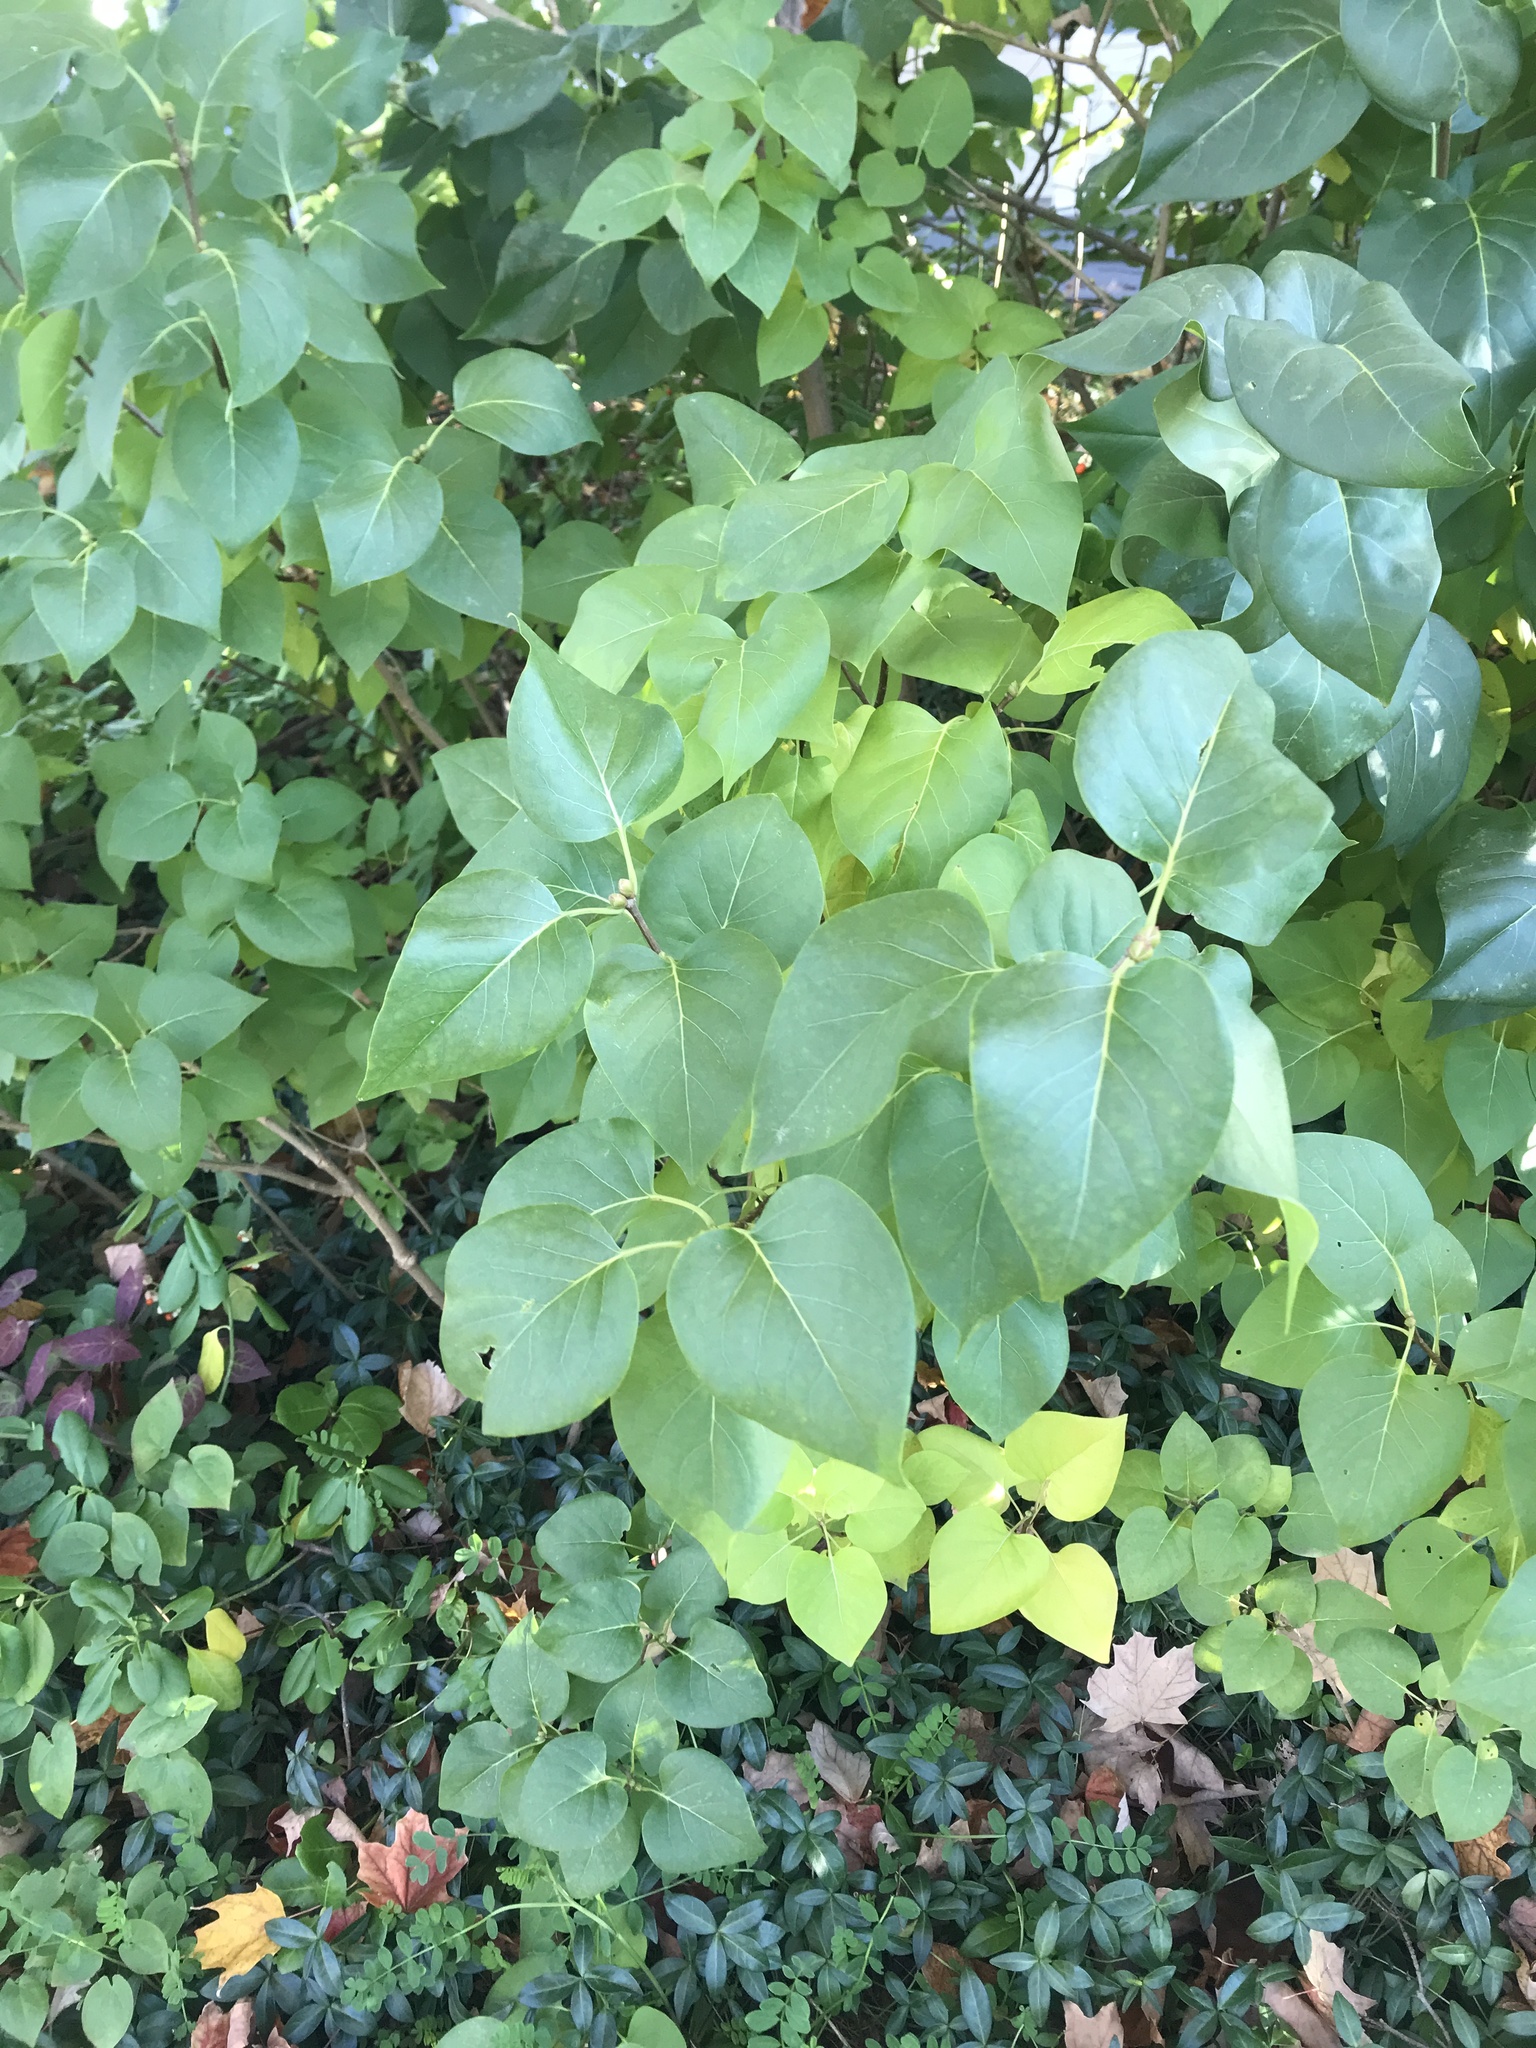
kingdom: Plantae
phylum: Tracheophyta
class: Magnoliopsida
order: Lamiales
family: Oleaceae
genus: Syringa
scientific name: Syringa vulgaris
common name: Common lilac
